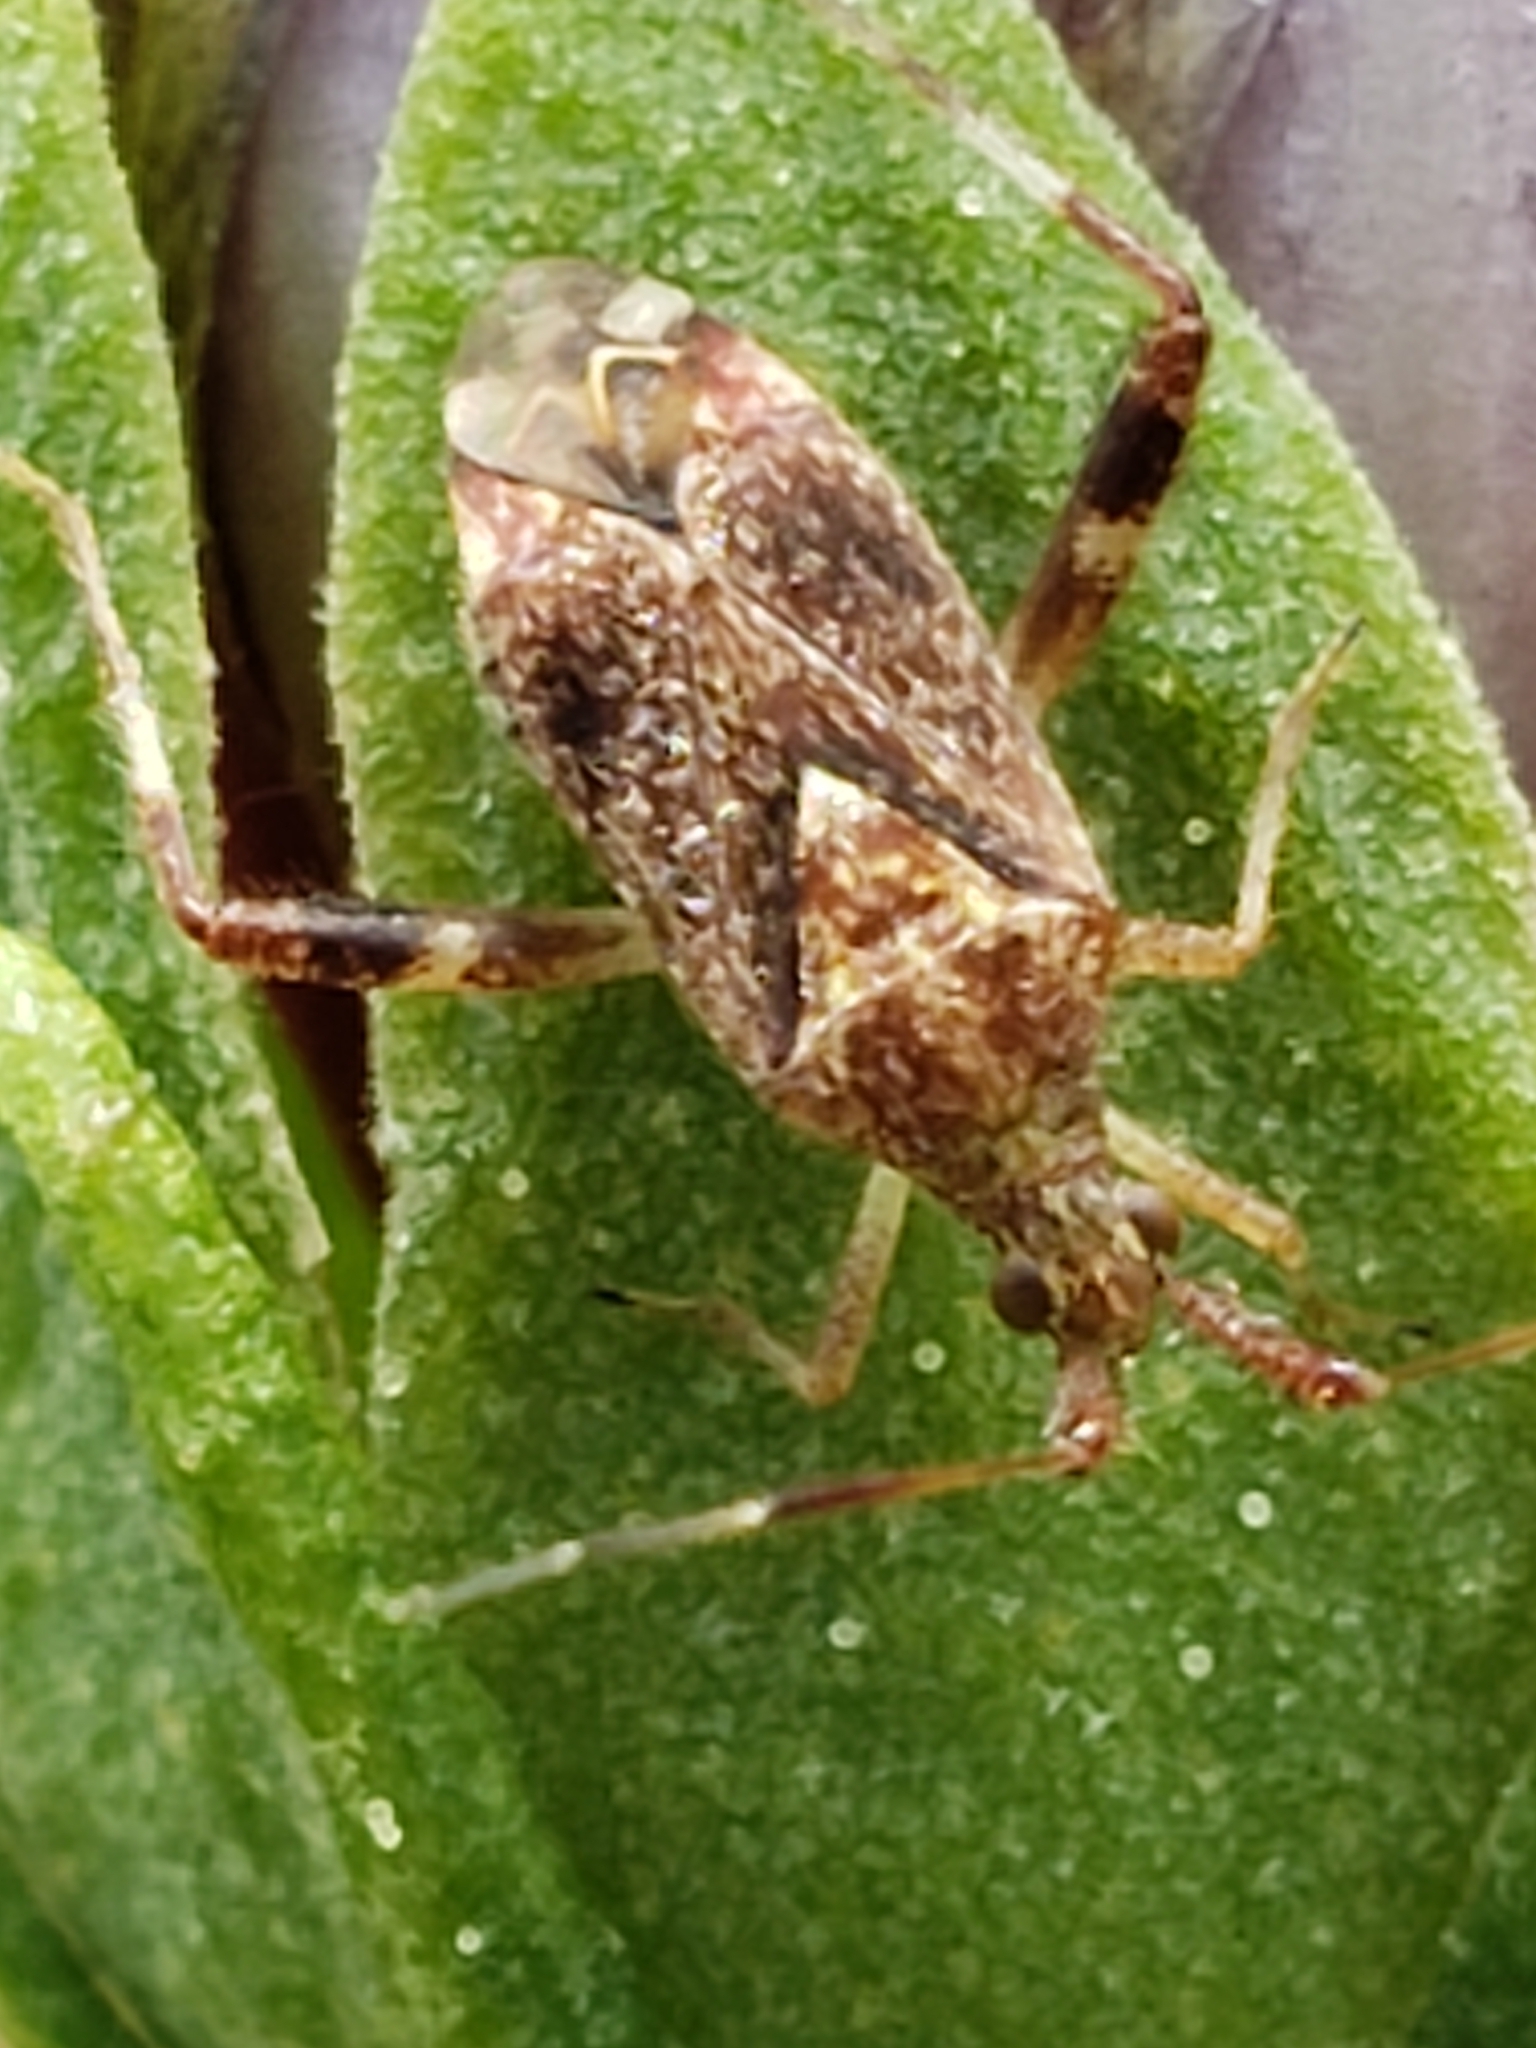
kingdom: Animalia
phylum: Arthropoda
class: Insecta
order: Hemiptera
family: Miridae
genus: Neurocolpus
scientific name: Neurocolpus nubilus
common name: Clouded plant bug
